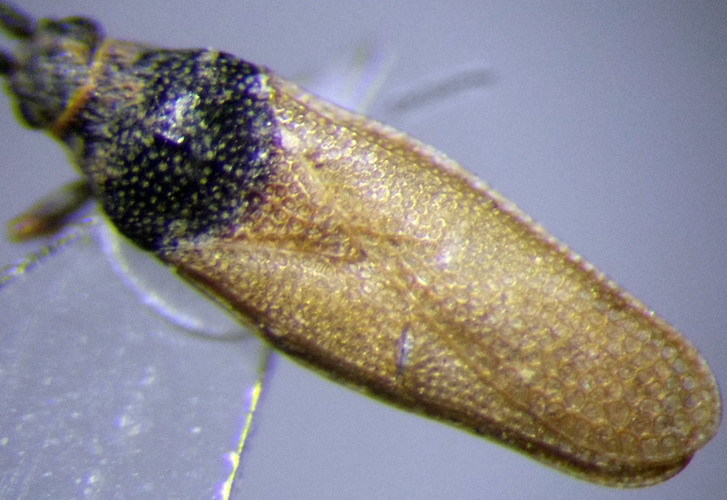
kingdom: Animalia
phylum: Arthropoda
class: Insecta
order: Hemiptera
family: Tingidae
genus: Agramma
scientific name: Agramma confusum
